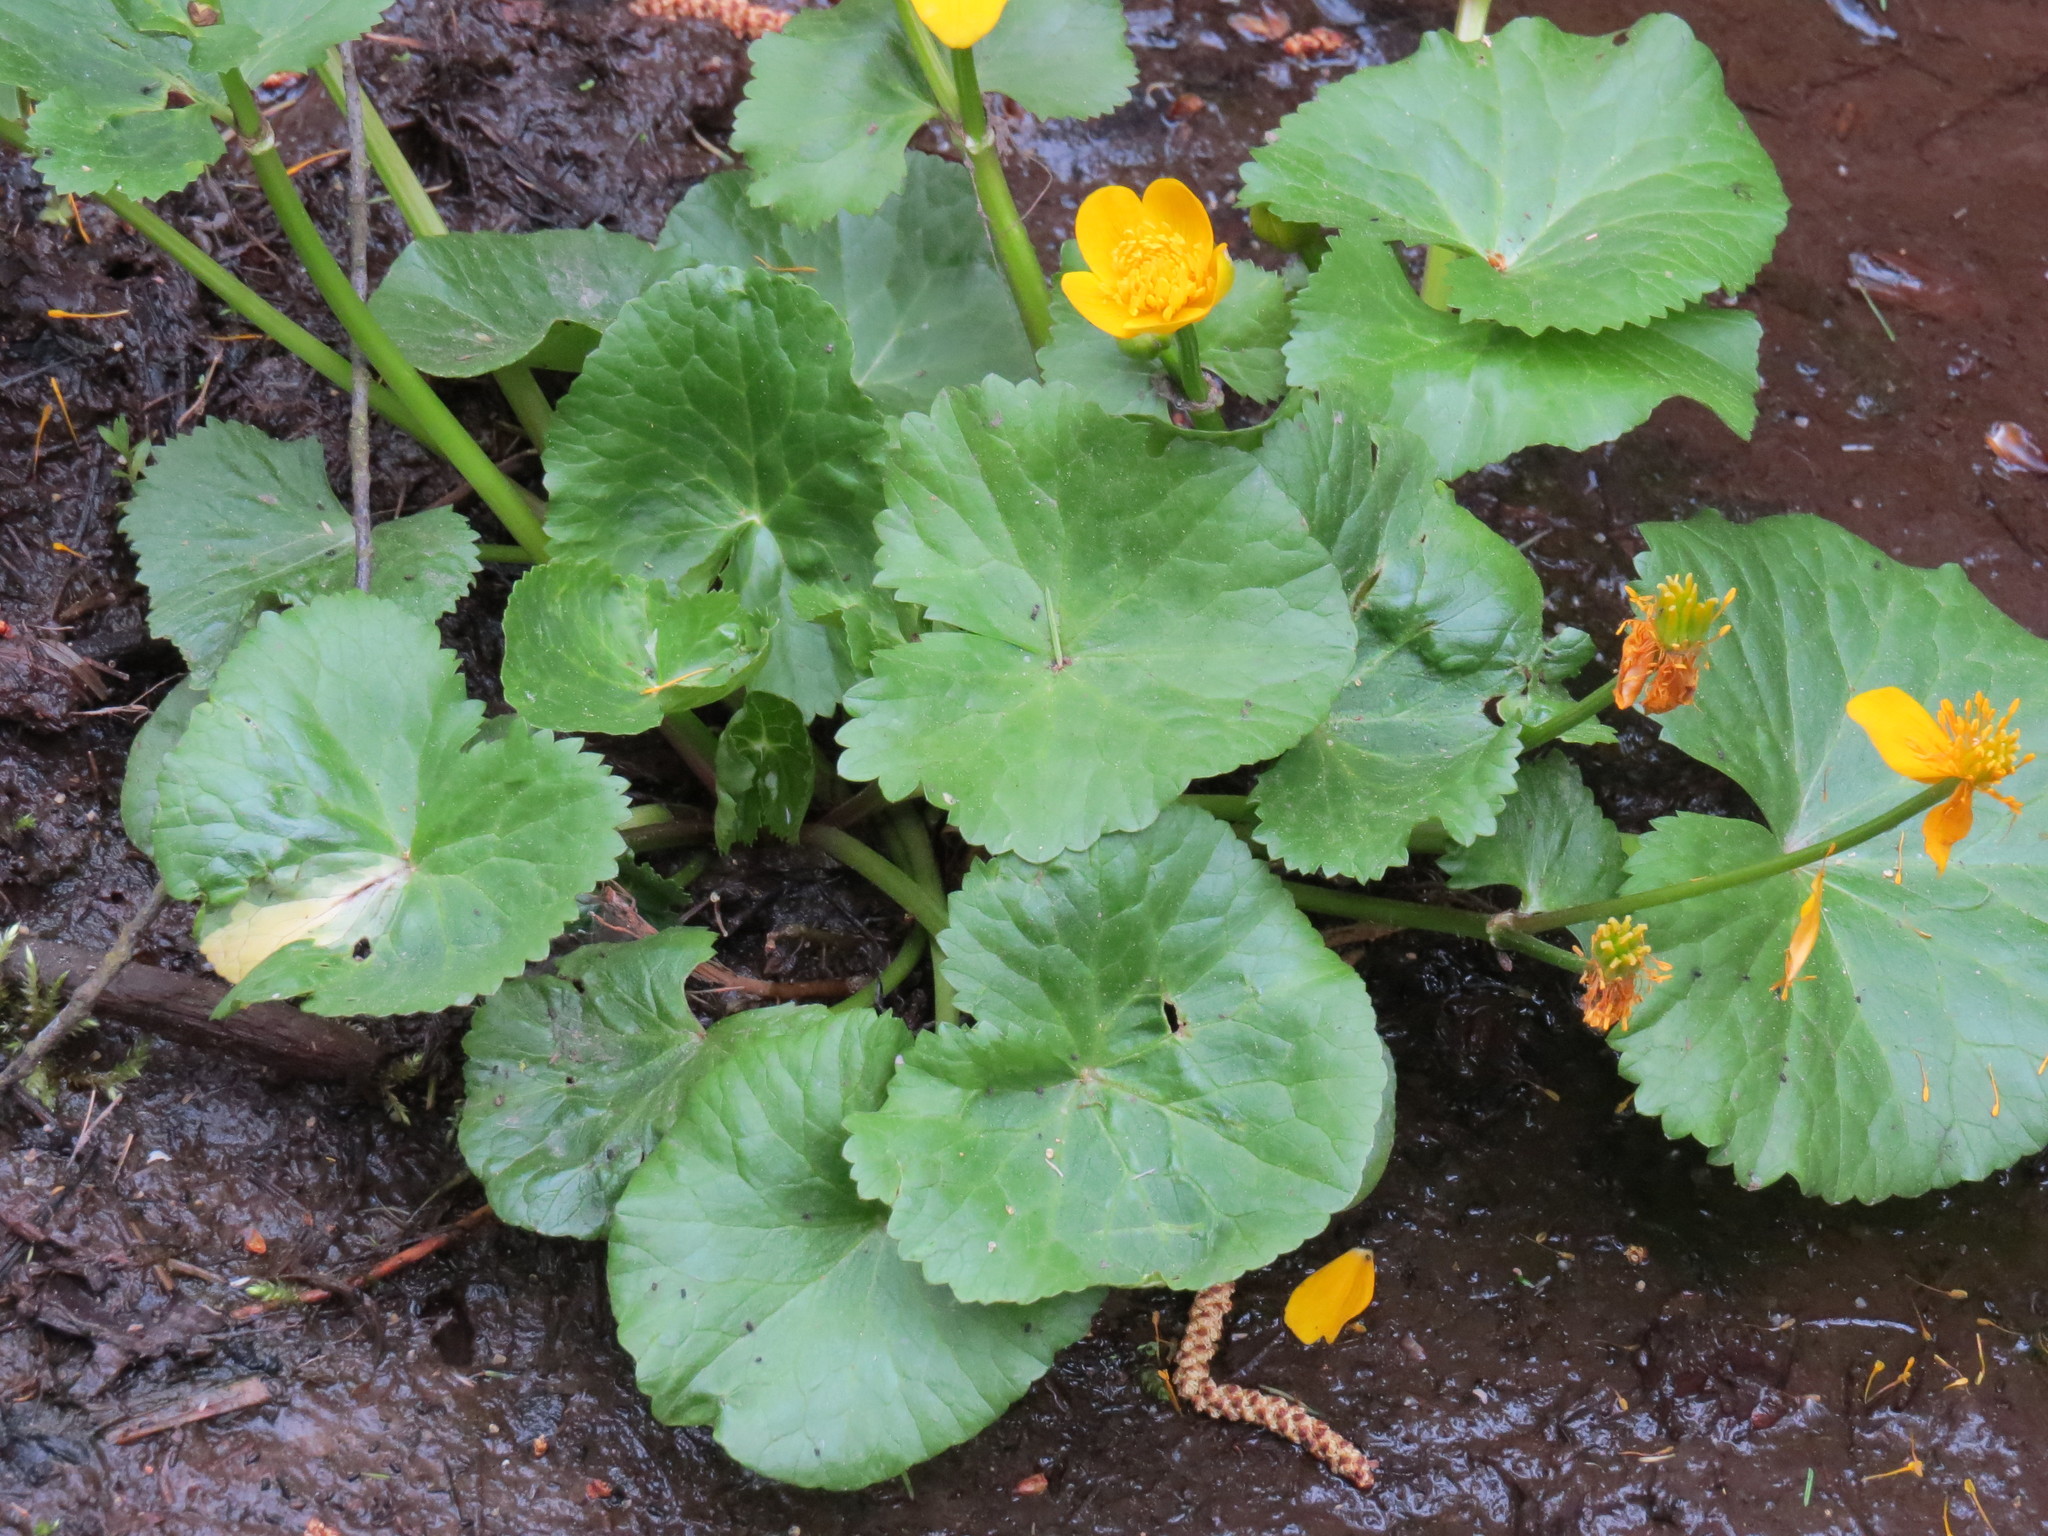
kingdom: Plantae
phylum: Tracheophyta
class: Magnoliopsida
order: Ranunculales
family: Ranunculaceae
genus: Caltha
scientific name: Caltha palustris
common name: Marsh marigold
